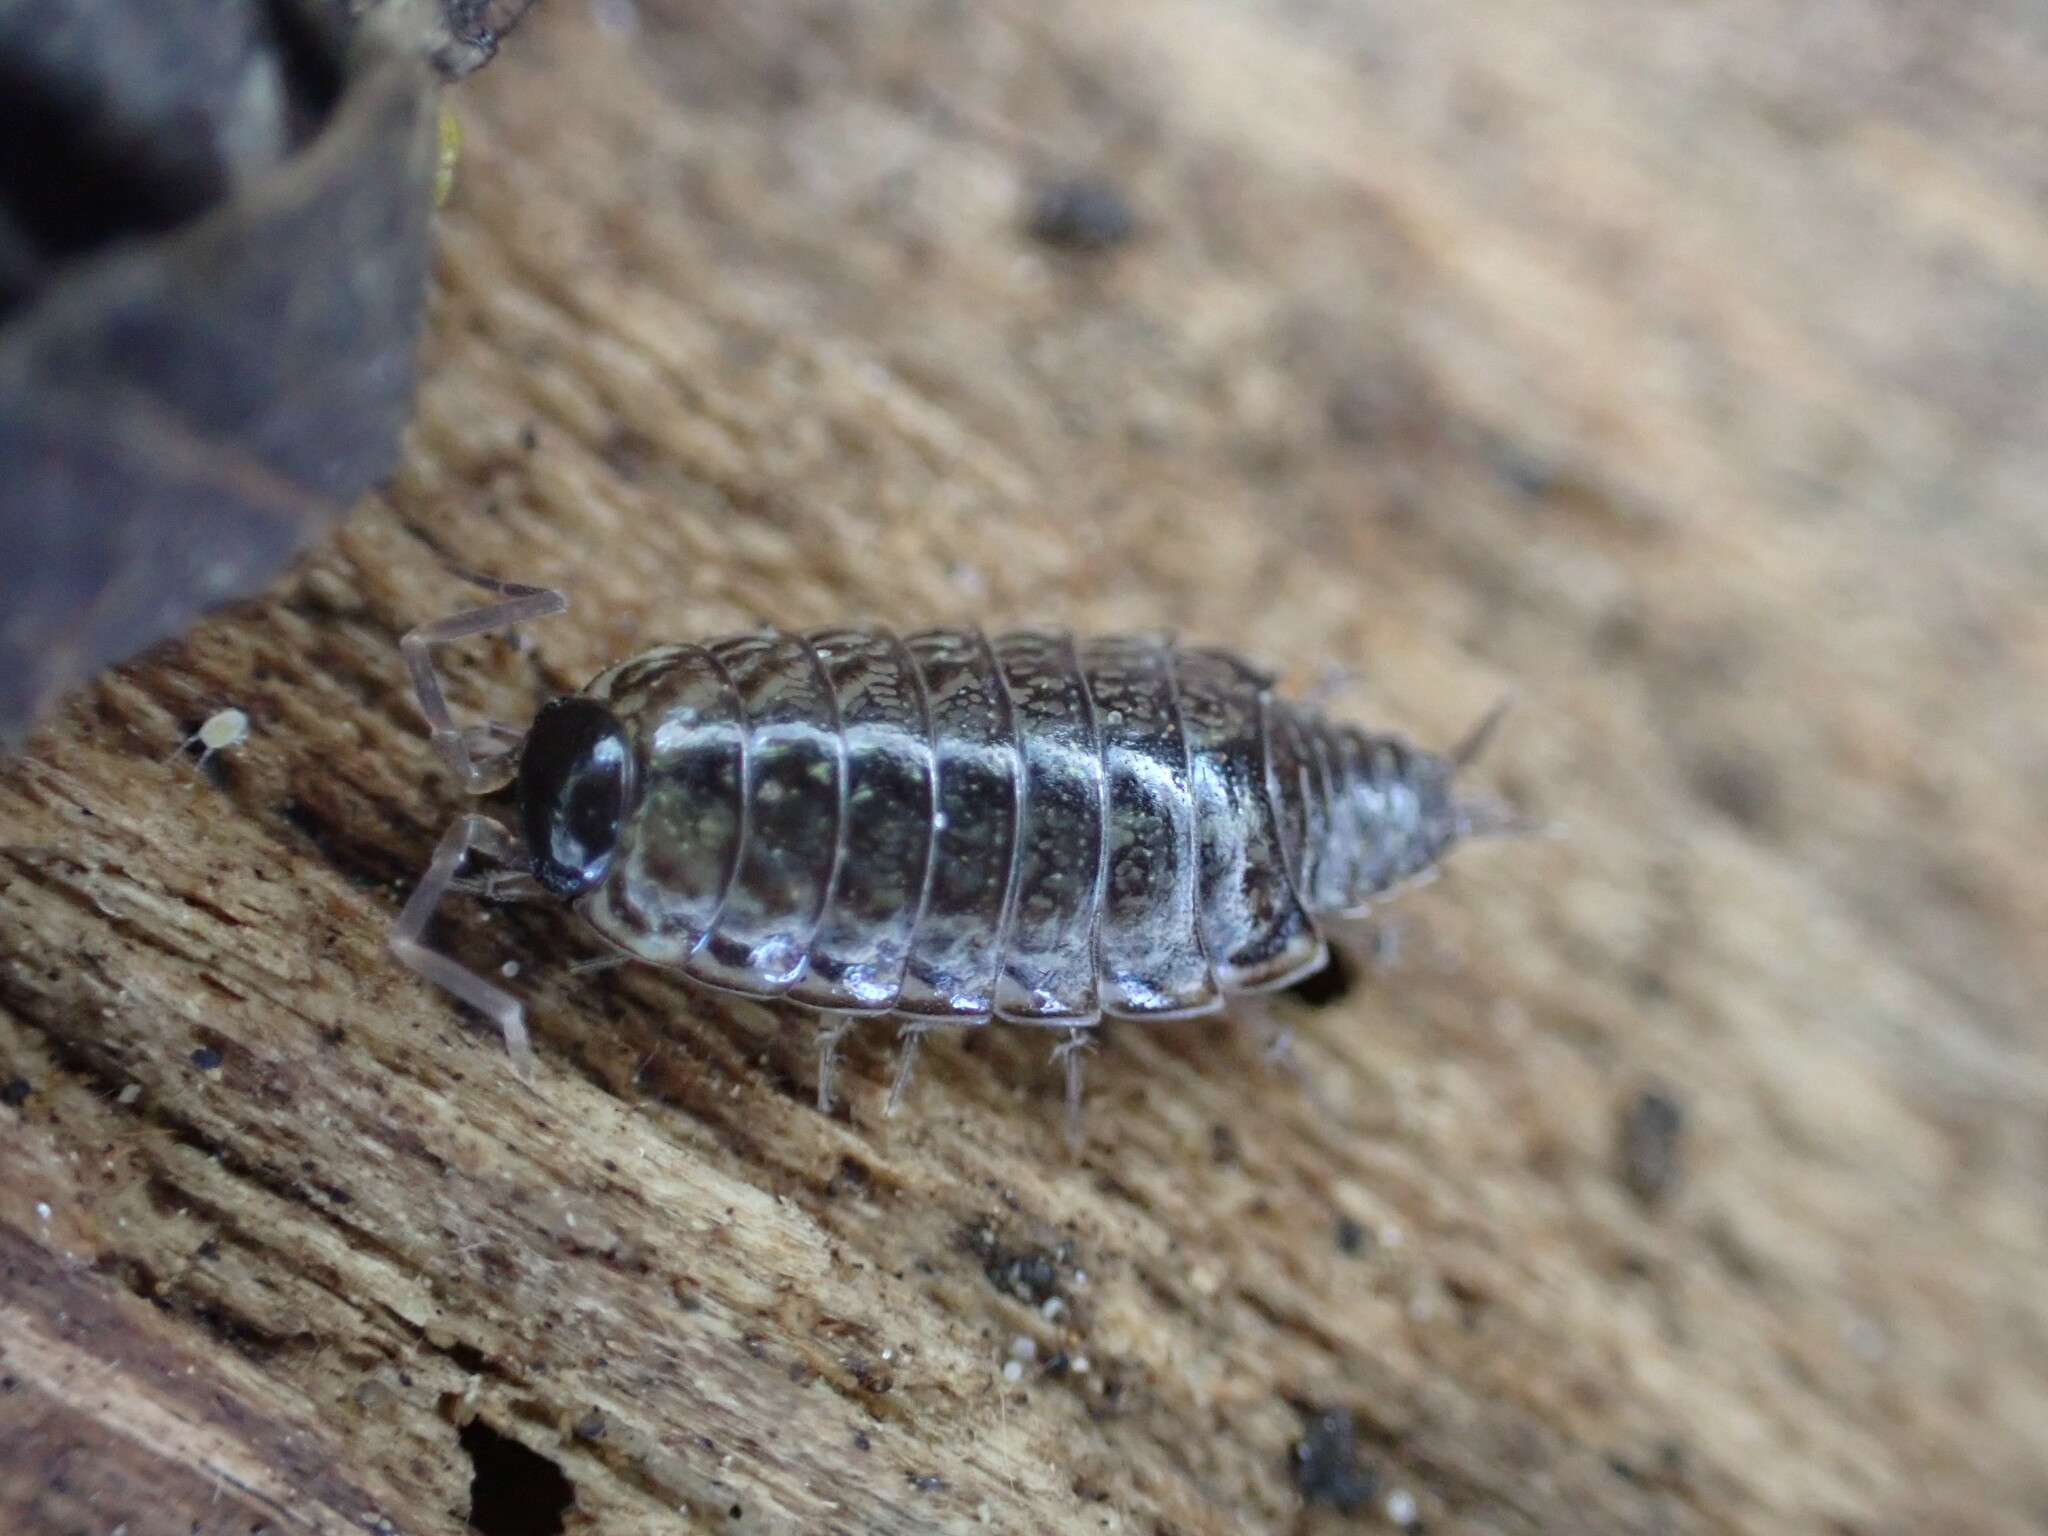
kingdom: Animalia
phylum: Arthropoda
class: Malacostraca
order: Isopoda
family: Philosciidae
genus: Philoscia
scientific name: Philoscia muscorum
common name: Common striped woodlouse
